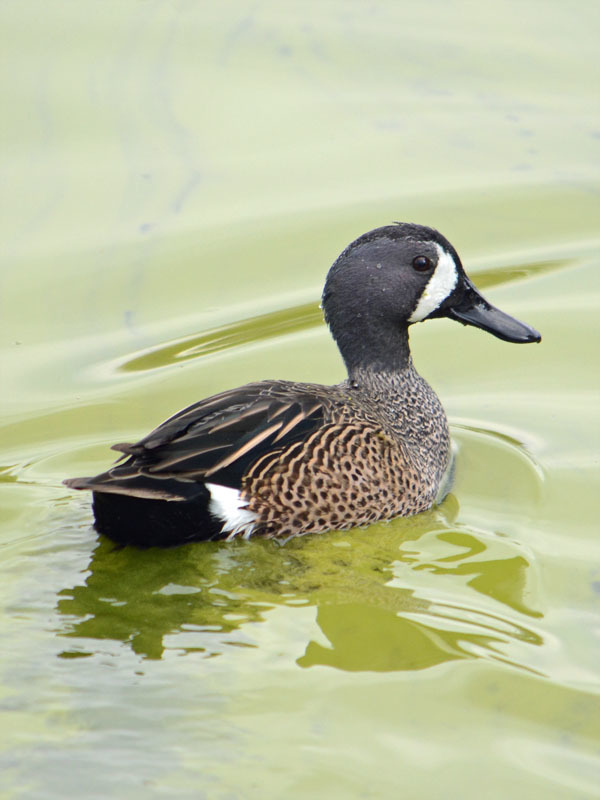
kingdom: Animalia
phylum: Chordata
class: Aves
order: Anseriformes
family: Anatidae
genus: Spatula
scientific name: Spatula discors
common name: Blue-winged teal
